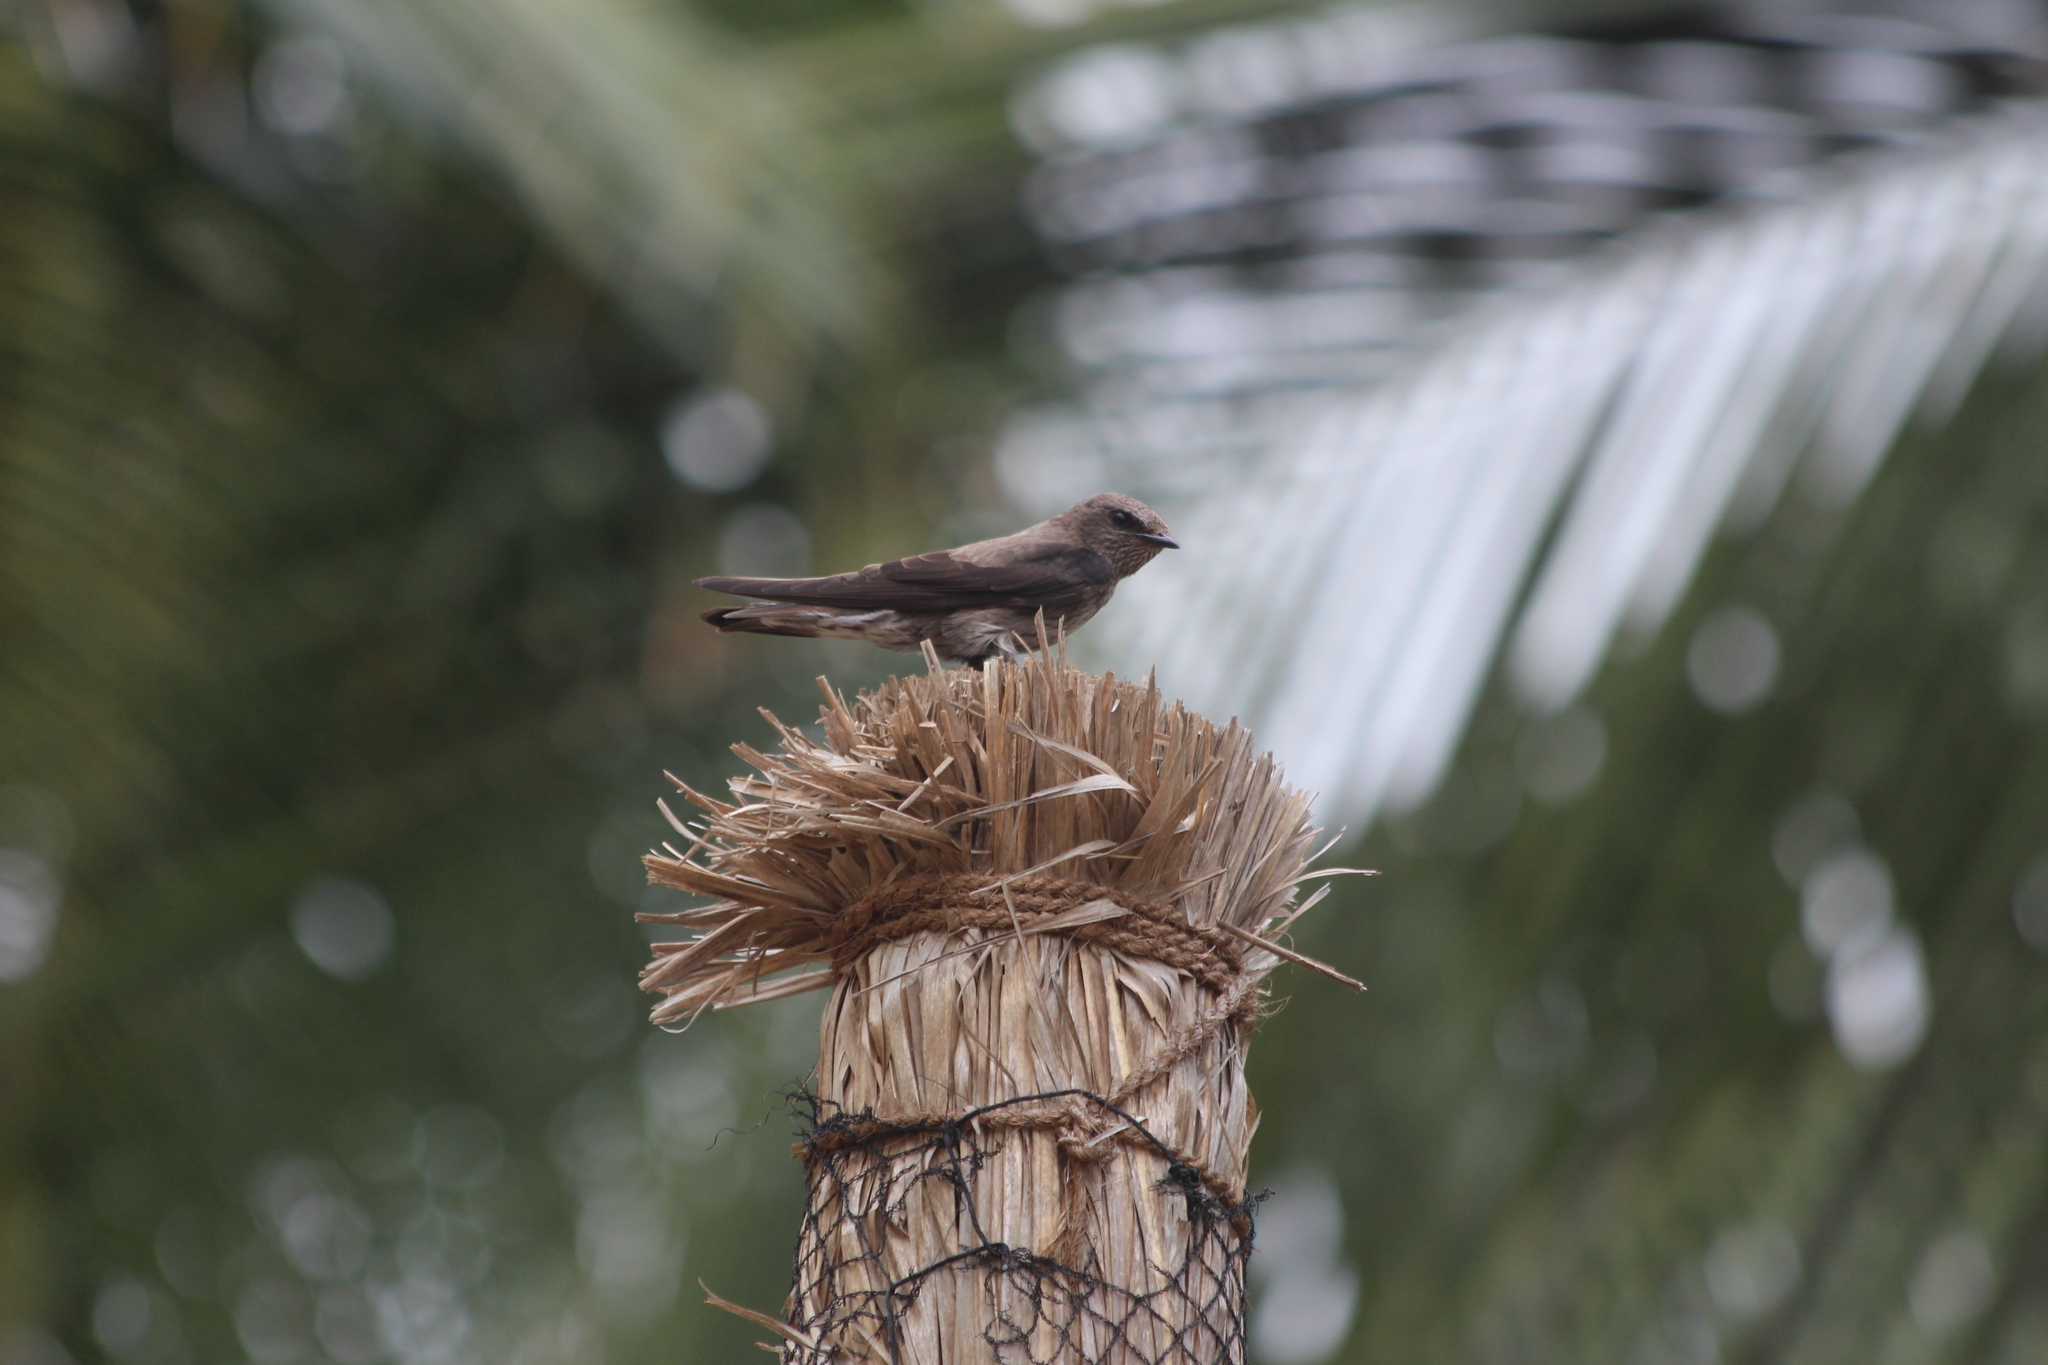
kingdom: Animalia
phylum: Chordata
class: Aves
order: Passeriformes
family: Hirundinidae
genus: Phedina
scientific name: Phedina borbonica
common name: Mascarene martin
